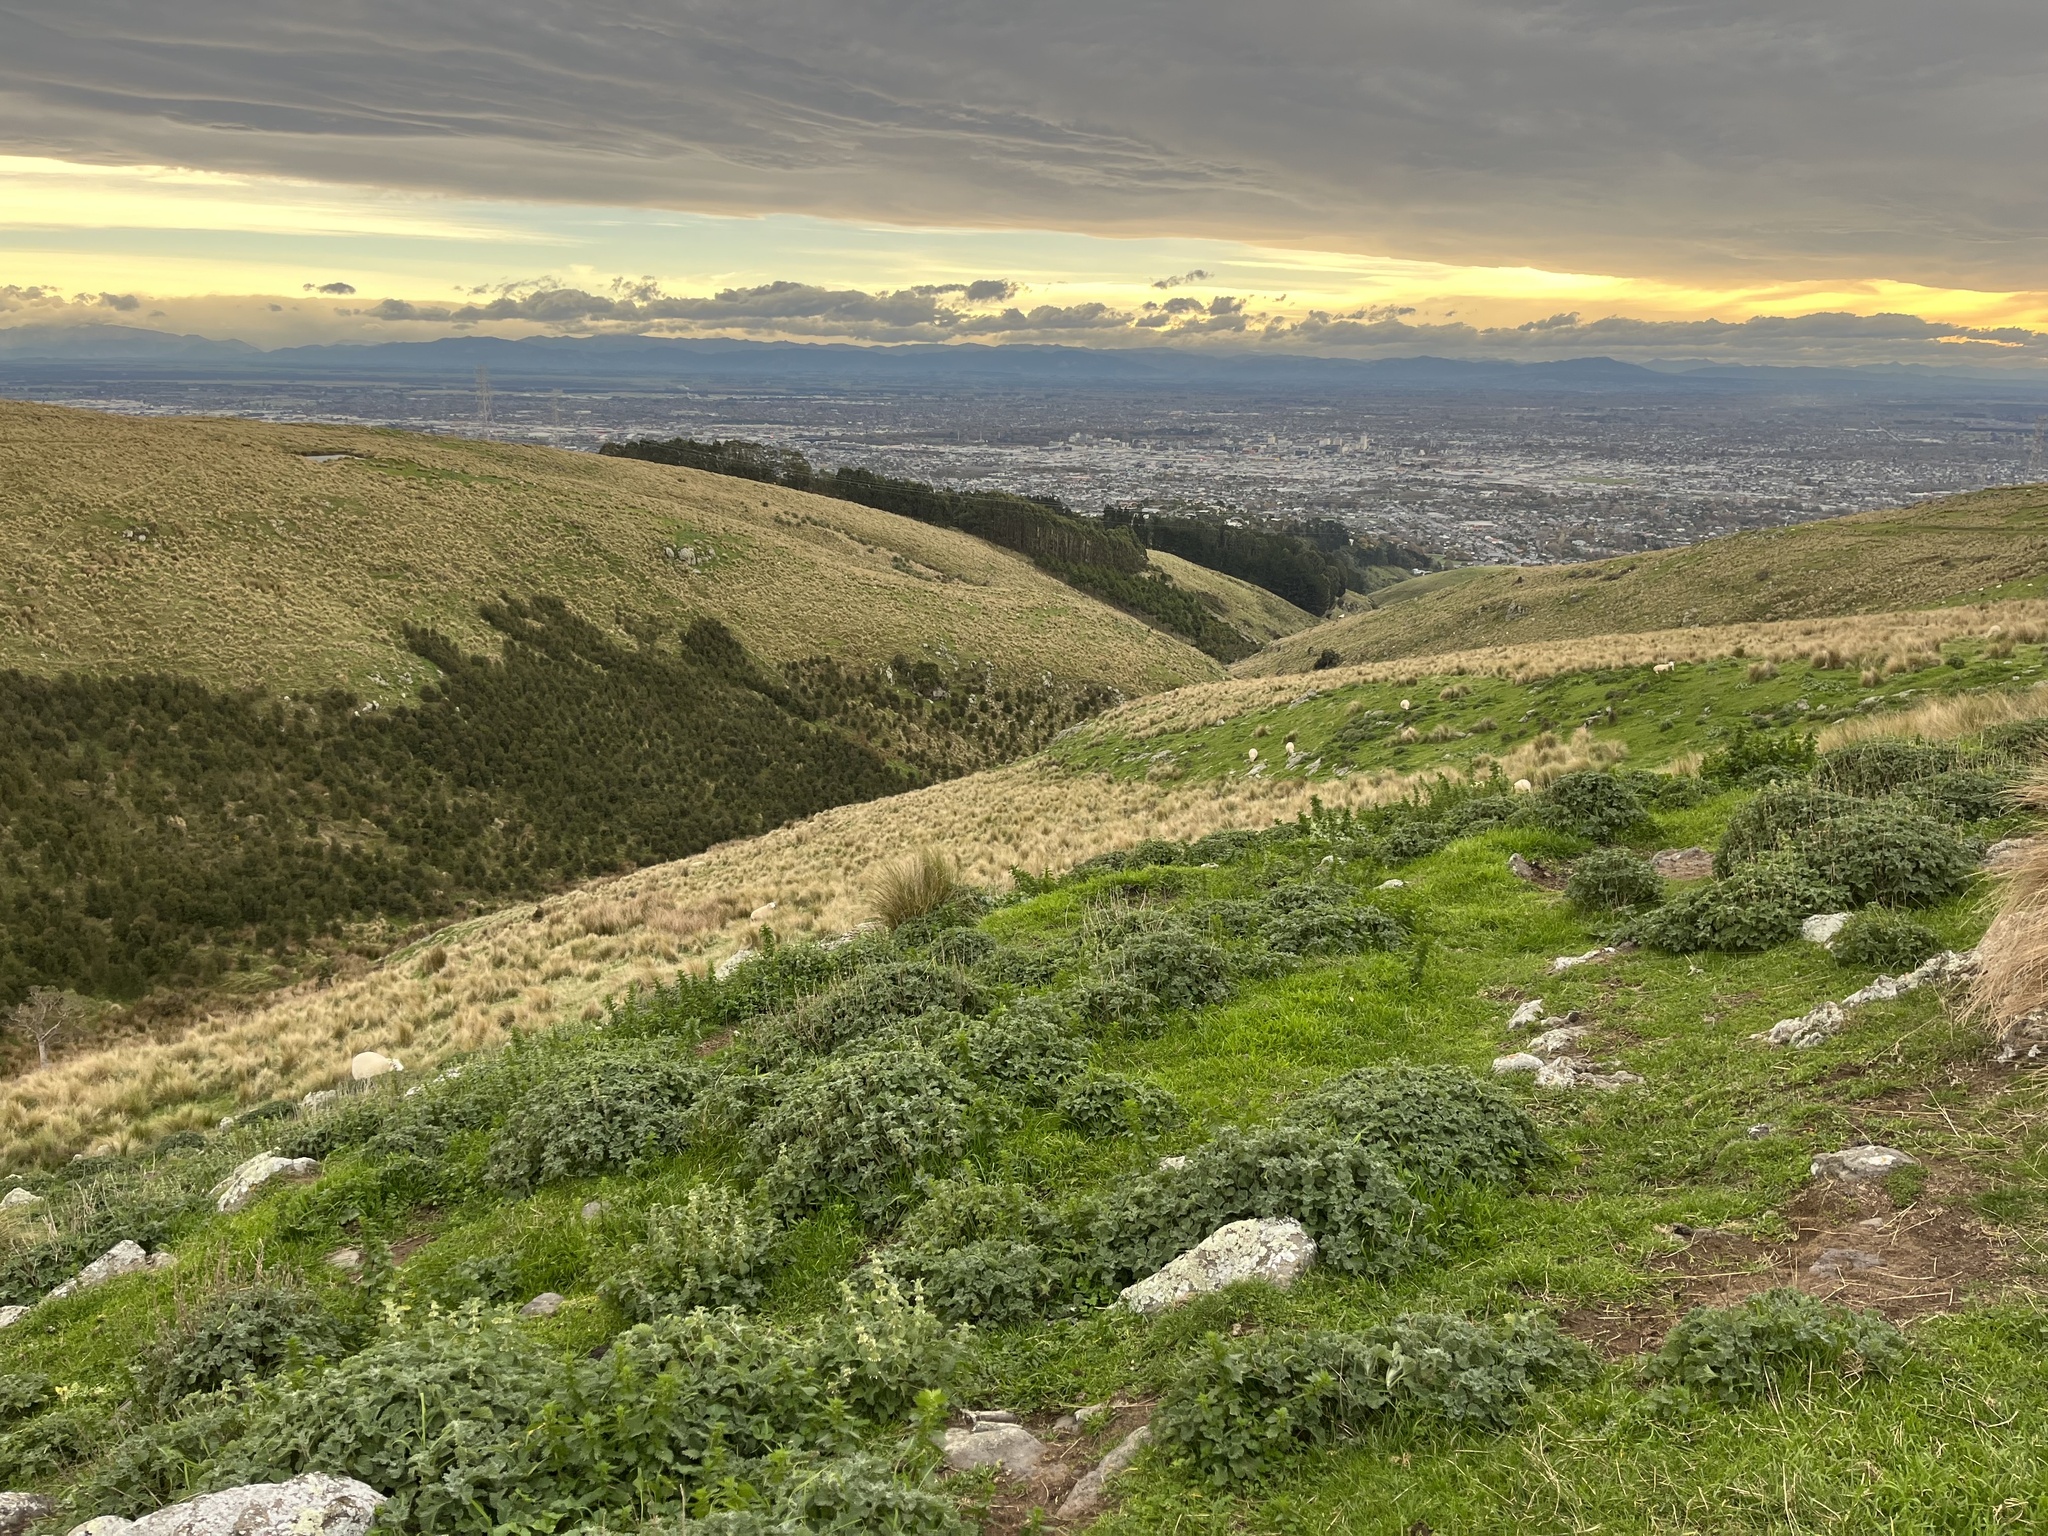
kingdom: Plantae
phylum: Tracheophyta
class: Magnoliopsida
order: Lamiales
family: Lamiaceae
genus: Marrubium
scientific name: Marrubium vulgare
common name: Horehound
